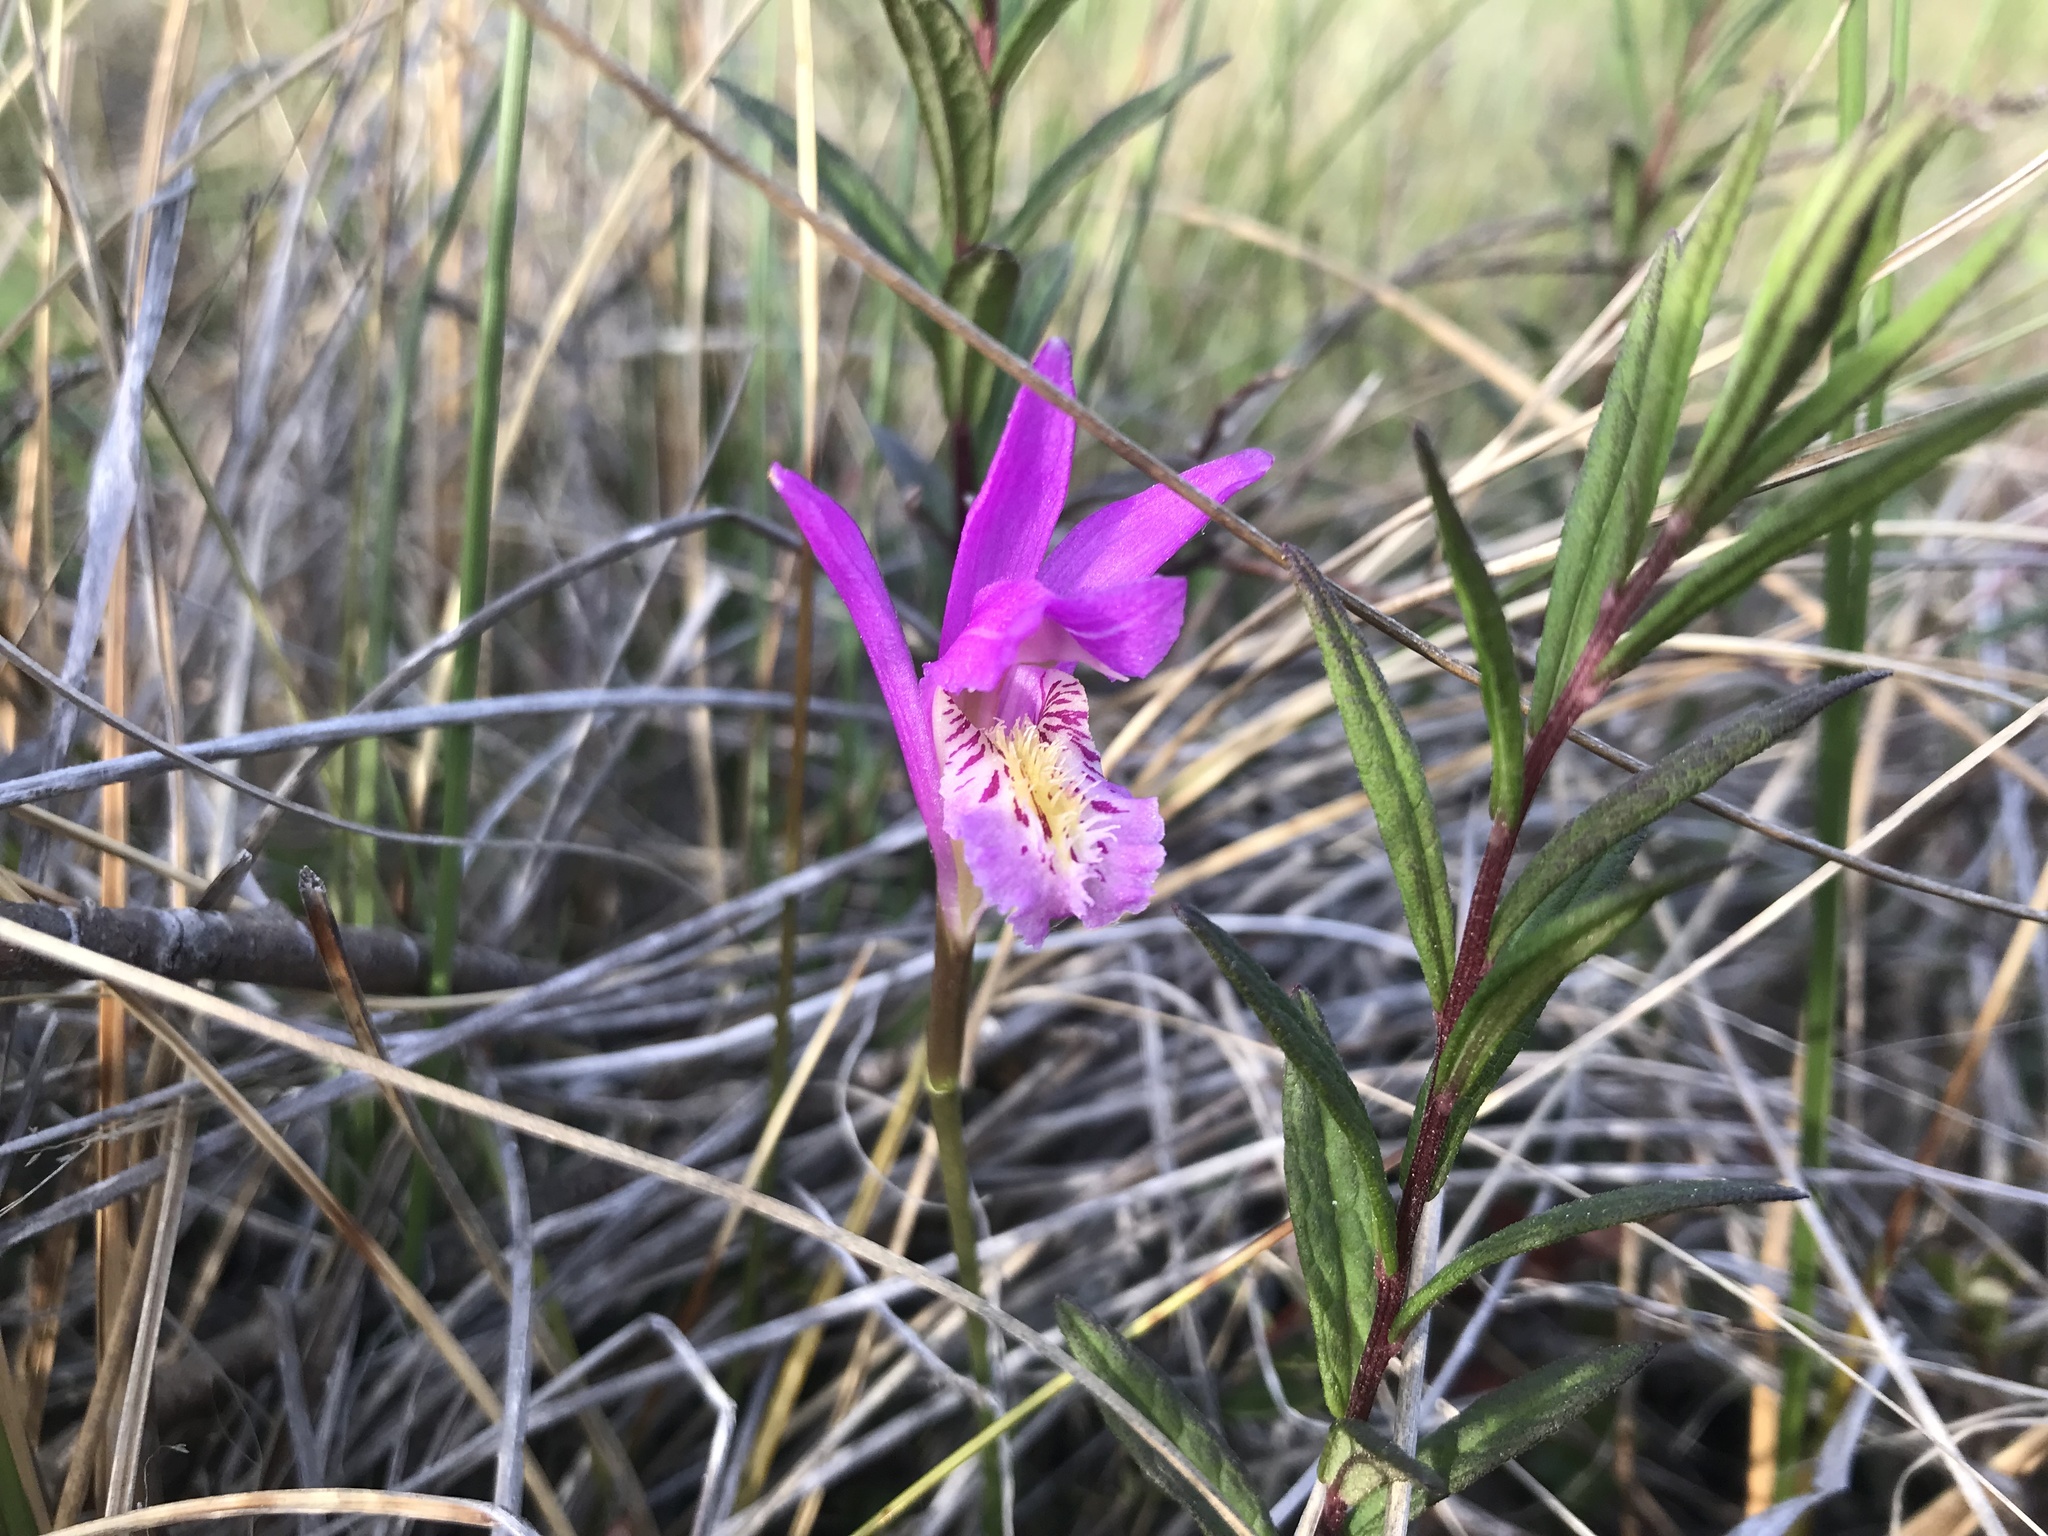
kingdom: Plantae
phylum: Tracheophyta
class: Liliopsida
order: Asparagales
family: Orchidaceae
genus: Arethusa
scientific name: Arethusa bulbosa
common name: Arethusa
